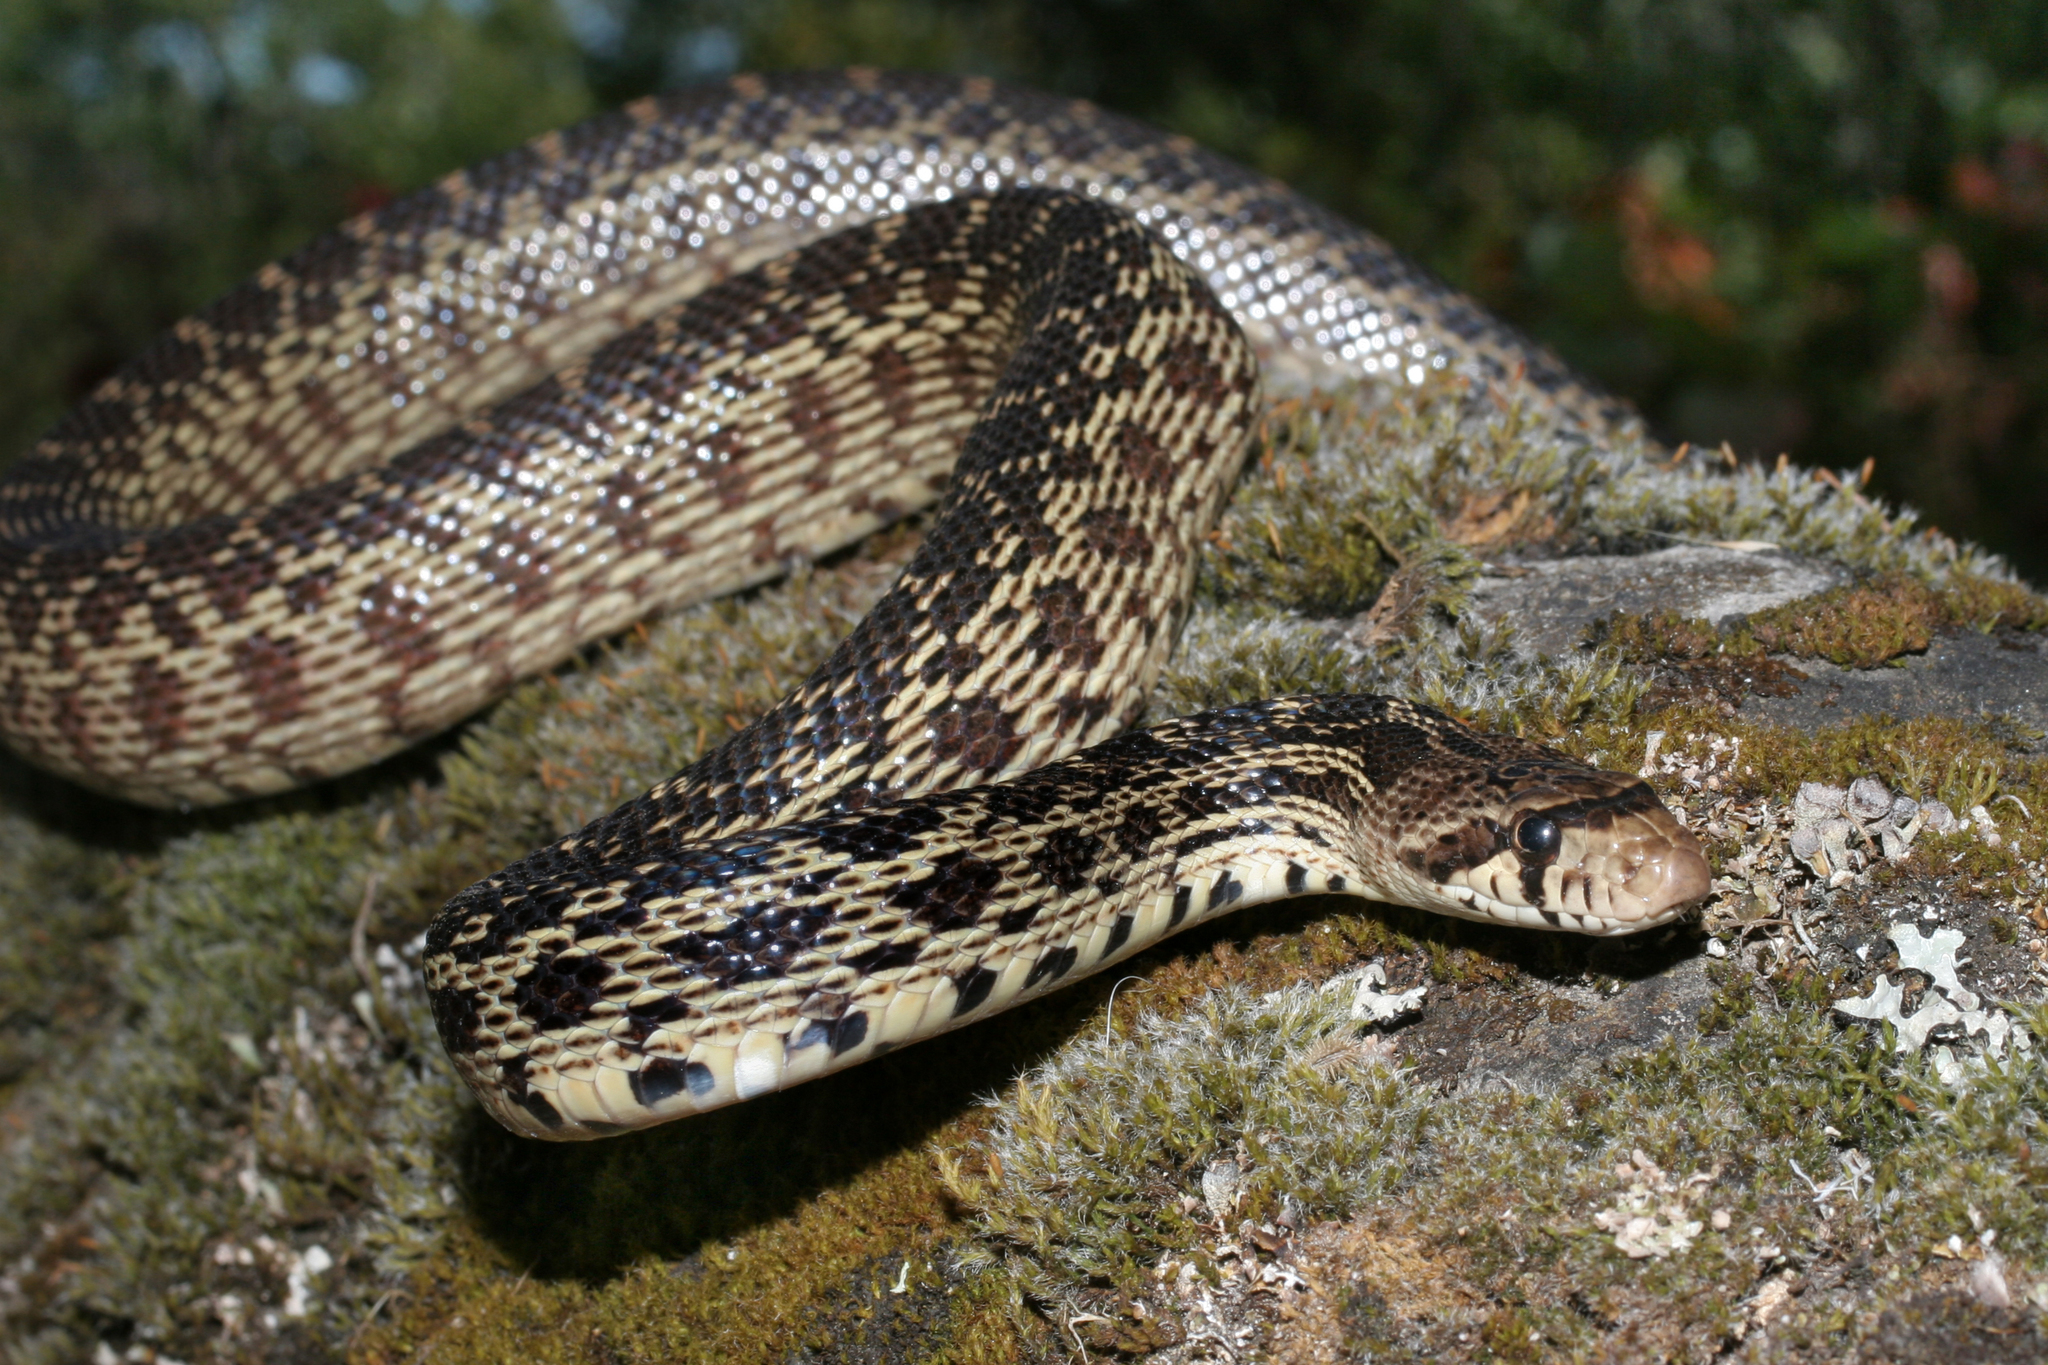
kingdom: Animalia
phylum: Chordata
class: Squamata
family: Colubridae
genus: Pituophis
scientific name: Pituophis catenifer
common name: Gopher snake
